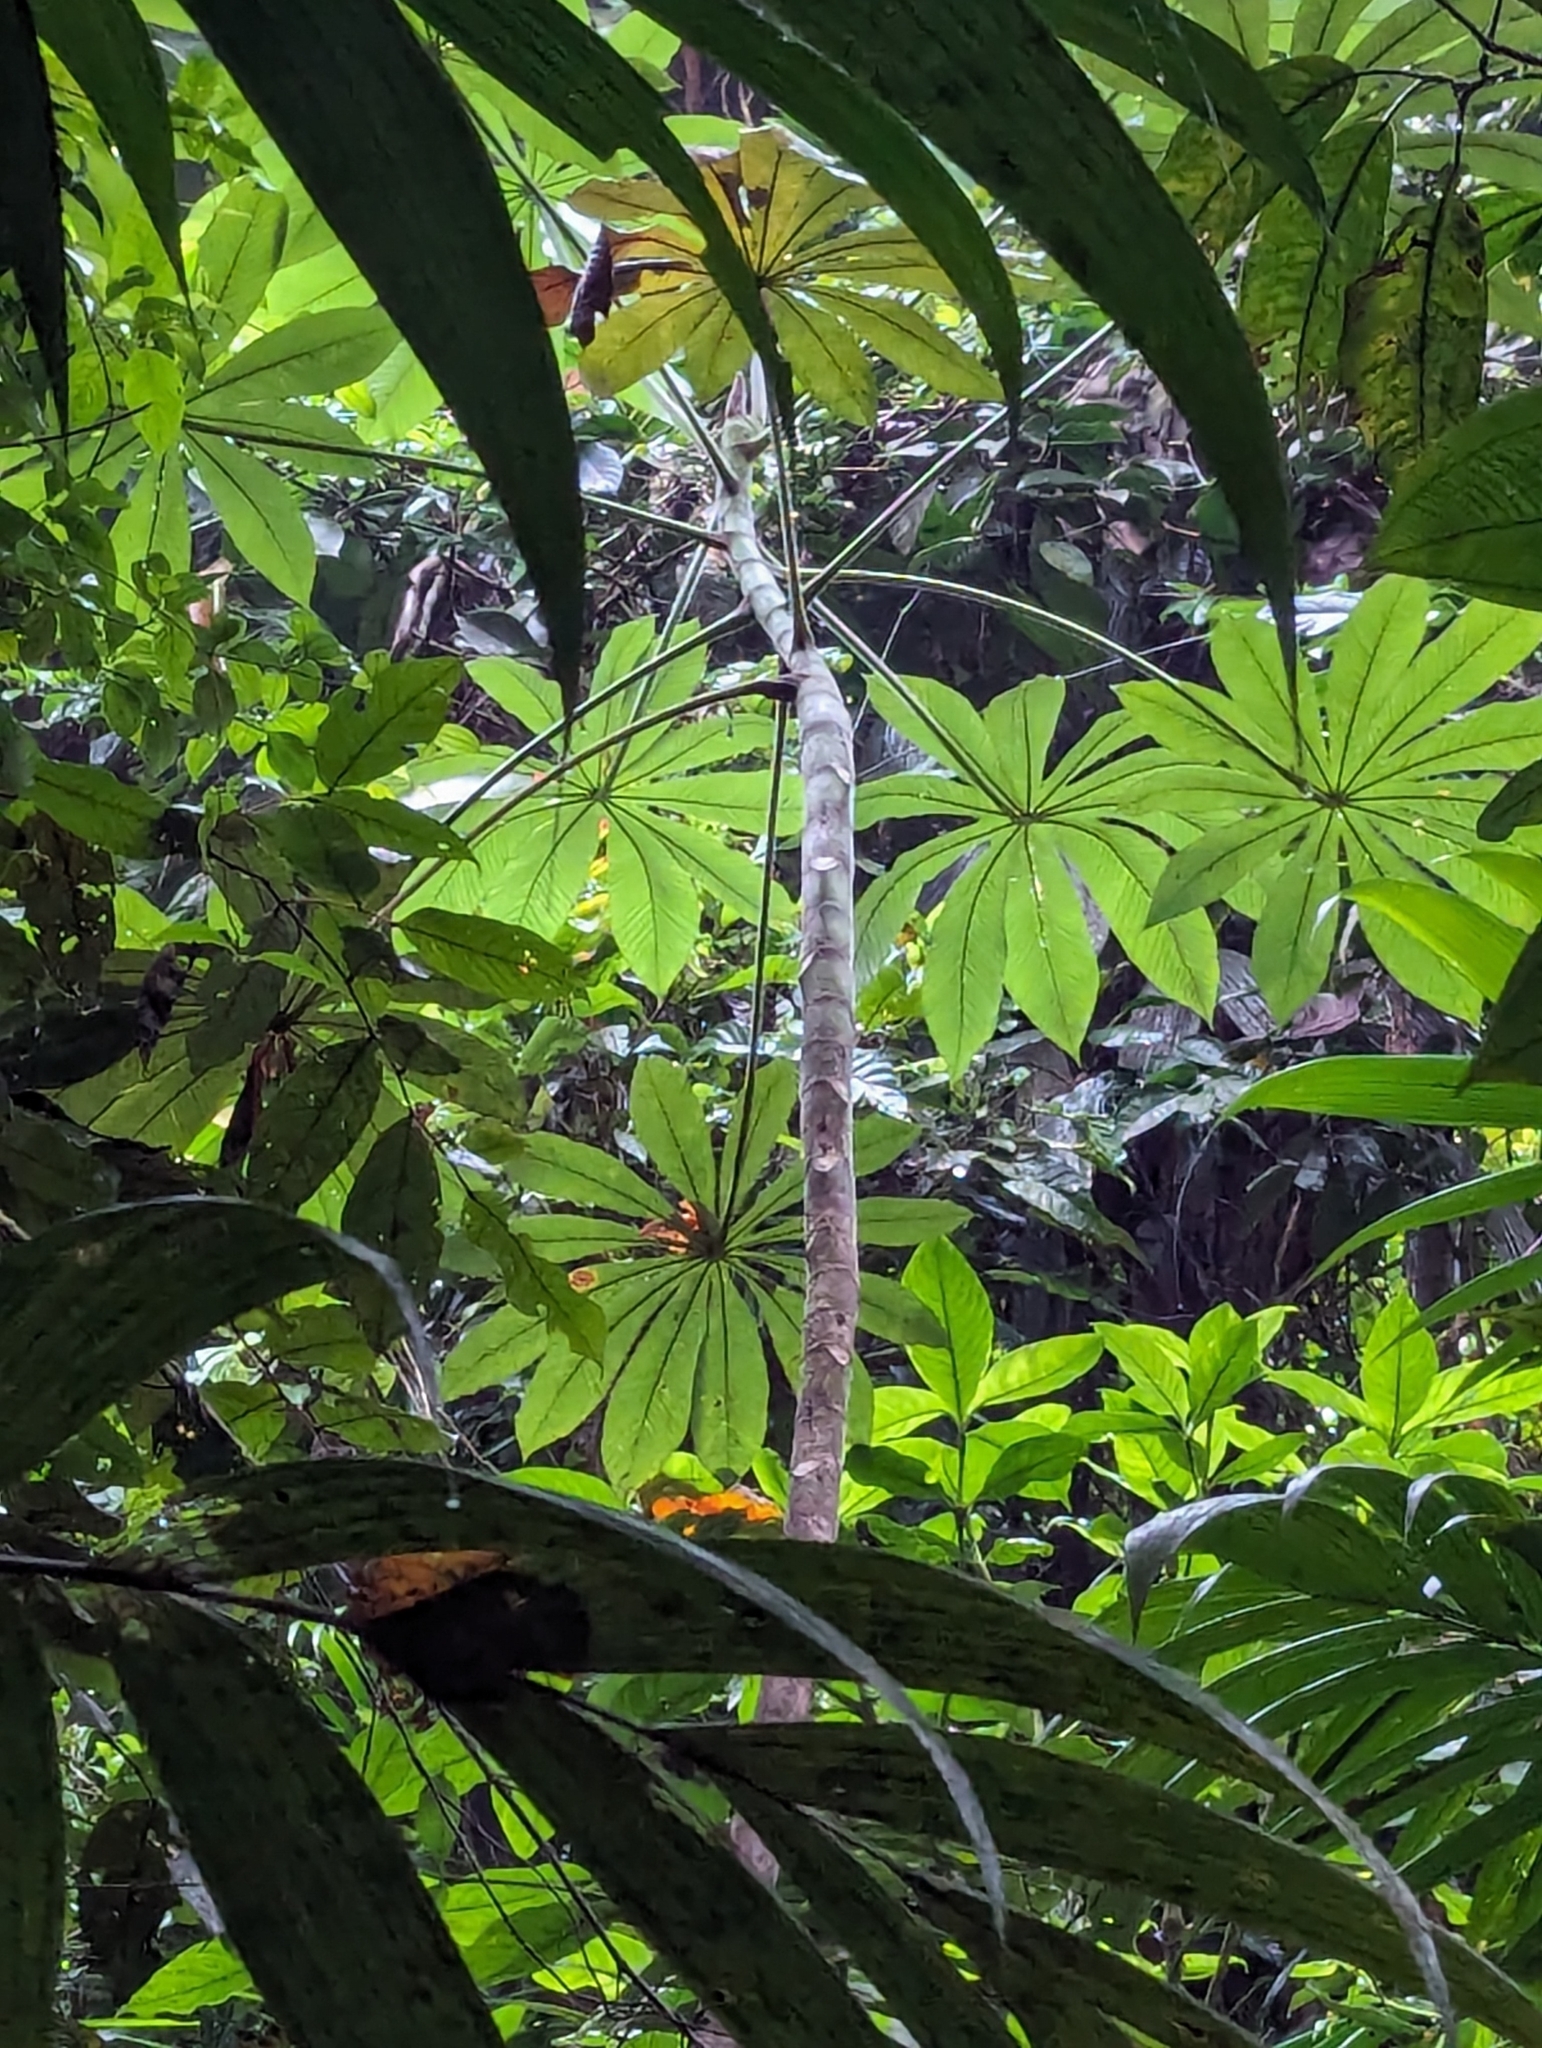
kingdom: Plantae
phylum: Tracheophyta
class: Magnoliopsida
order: Rosales
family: Urticaceae
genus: Cecropia
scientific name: Cecropia obtusifolia
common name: Trumpet tree
